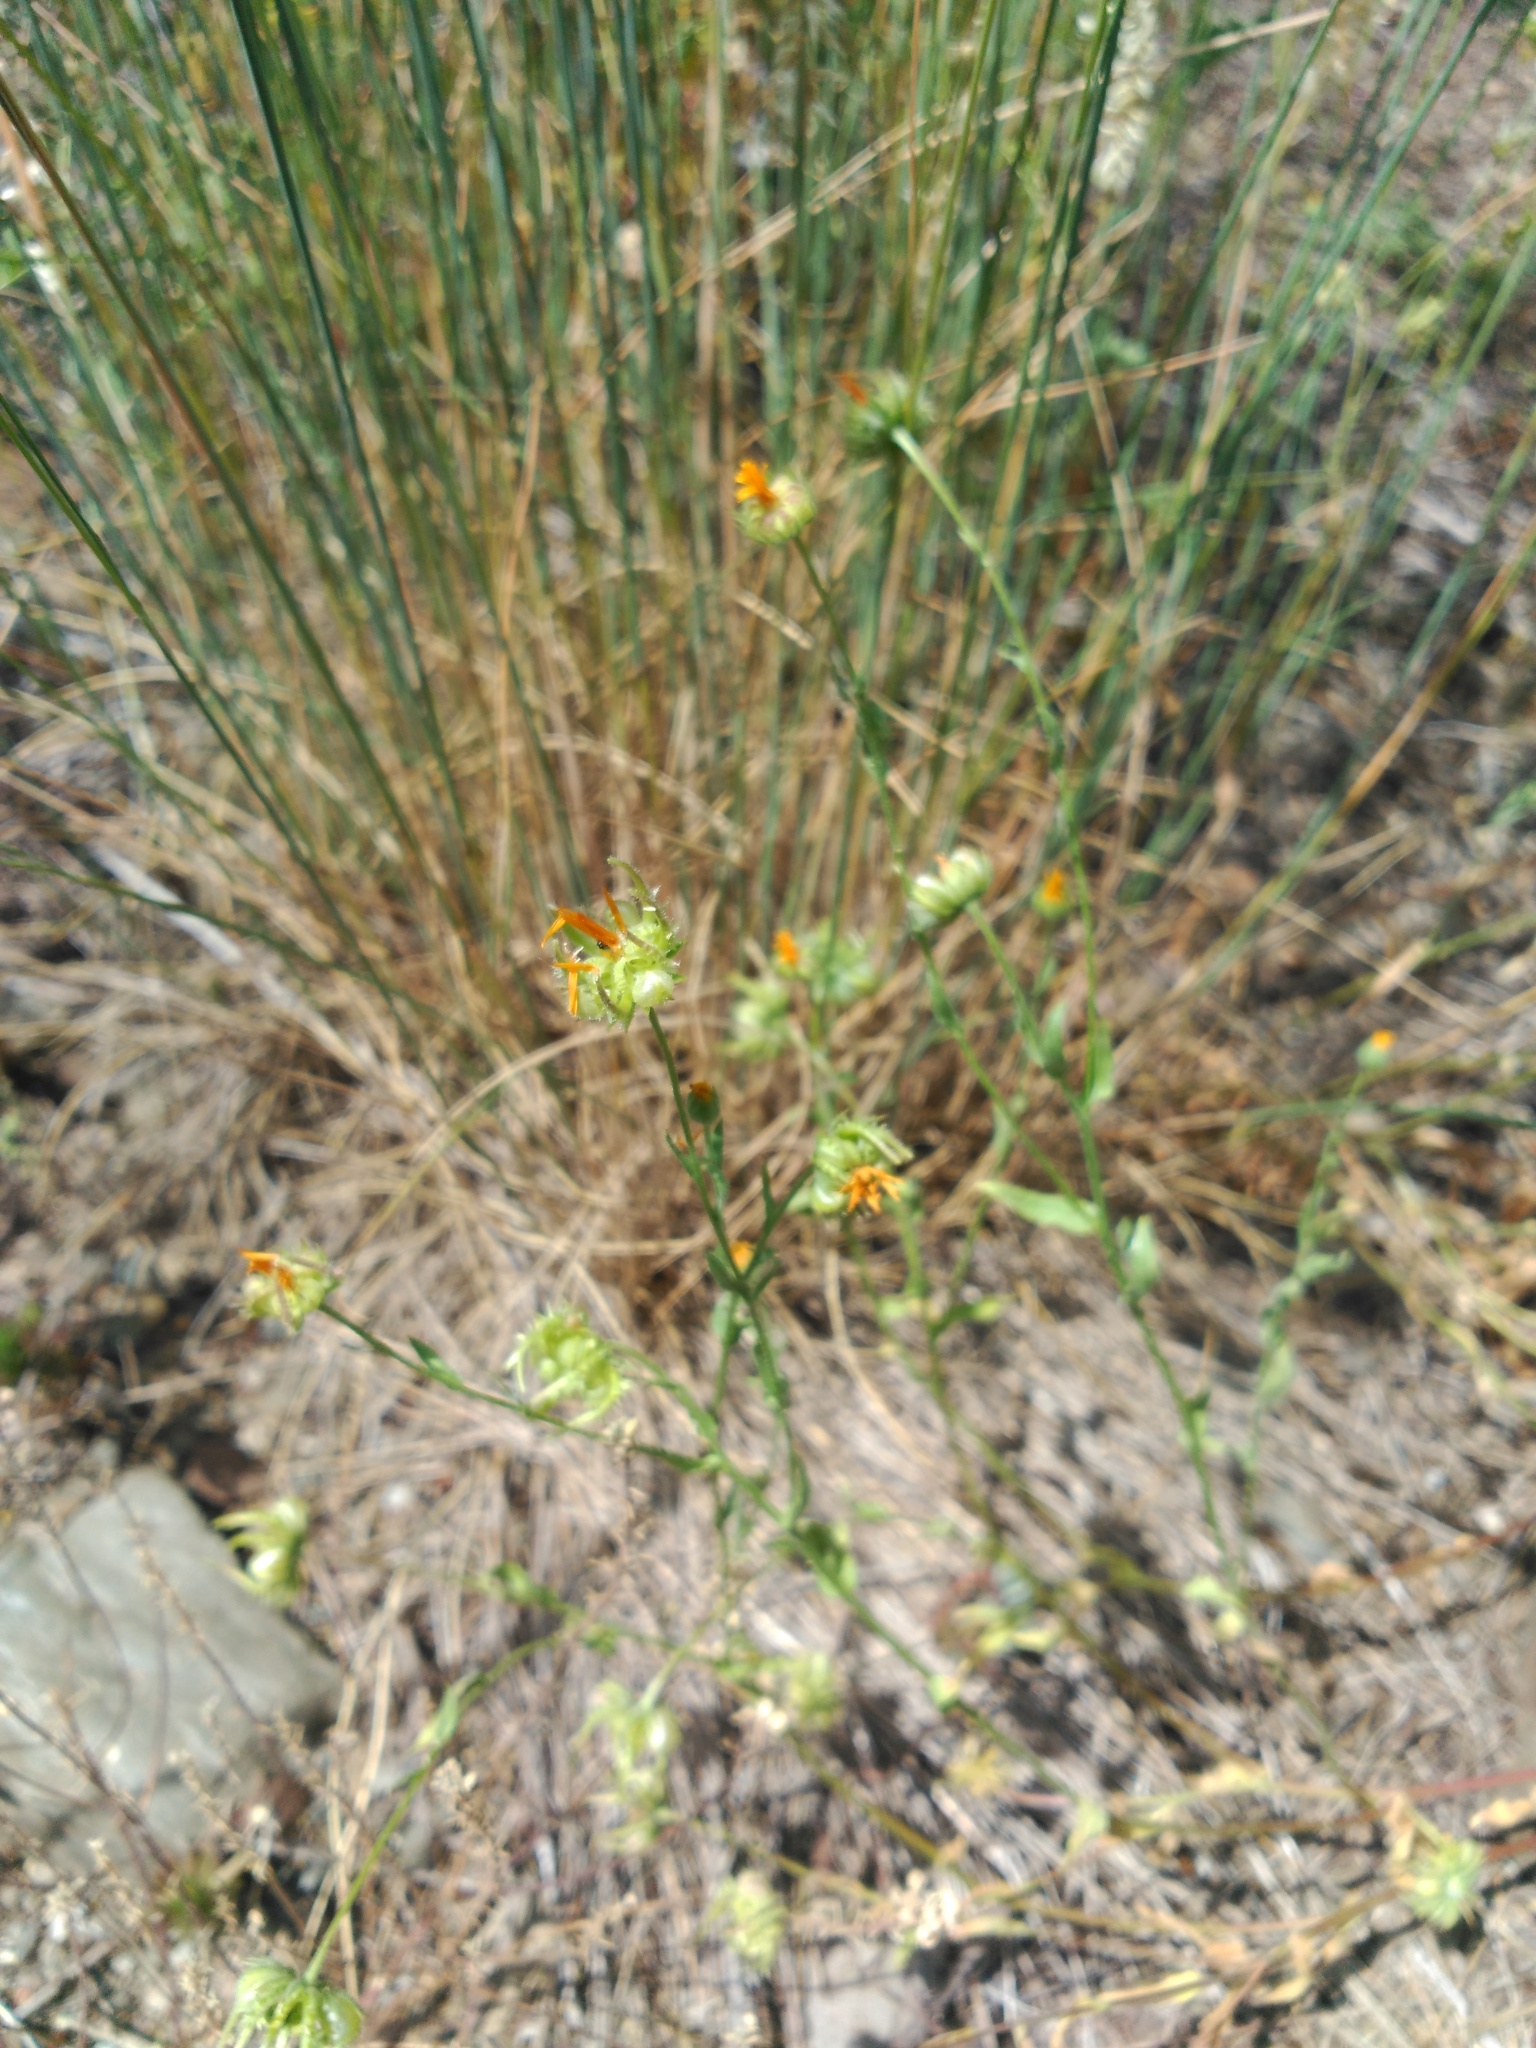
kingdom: Plantae
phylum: Tracheophyta
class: Magnoliopsida
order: Asterales
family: Asteraceae
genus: Calendula
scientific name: Calendula arvensis
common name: Field marigold
